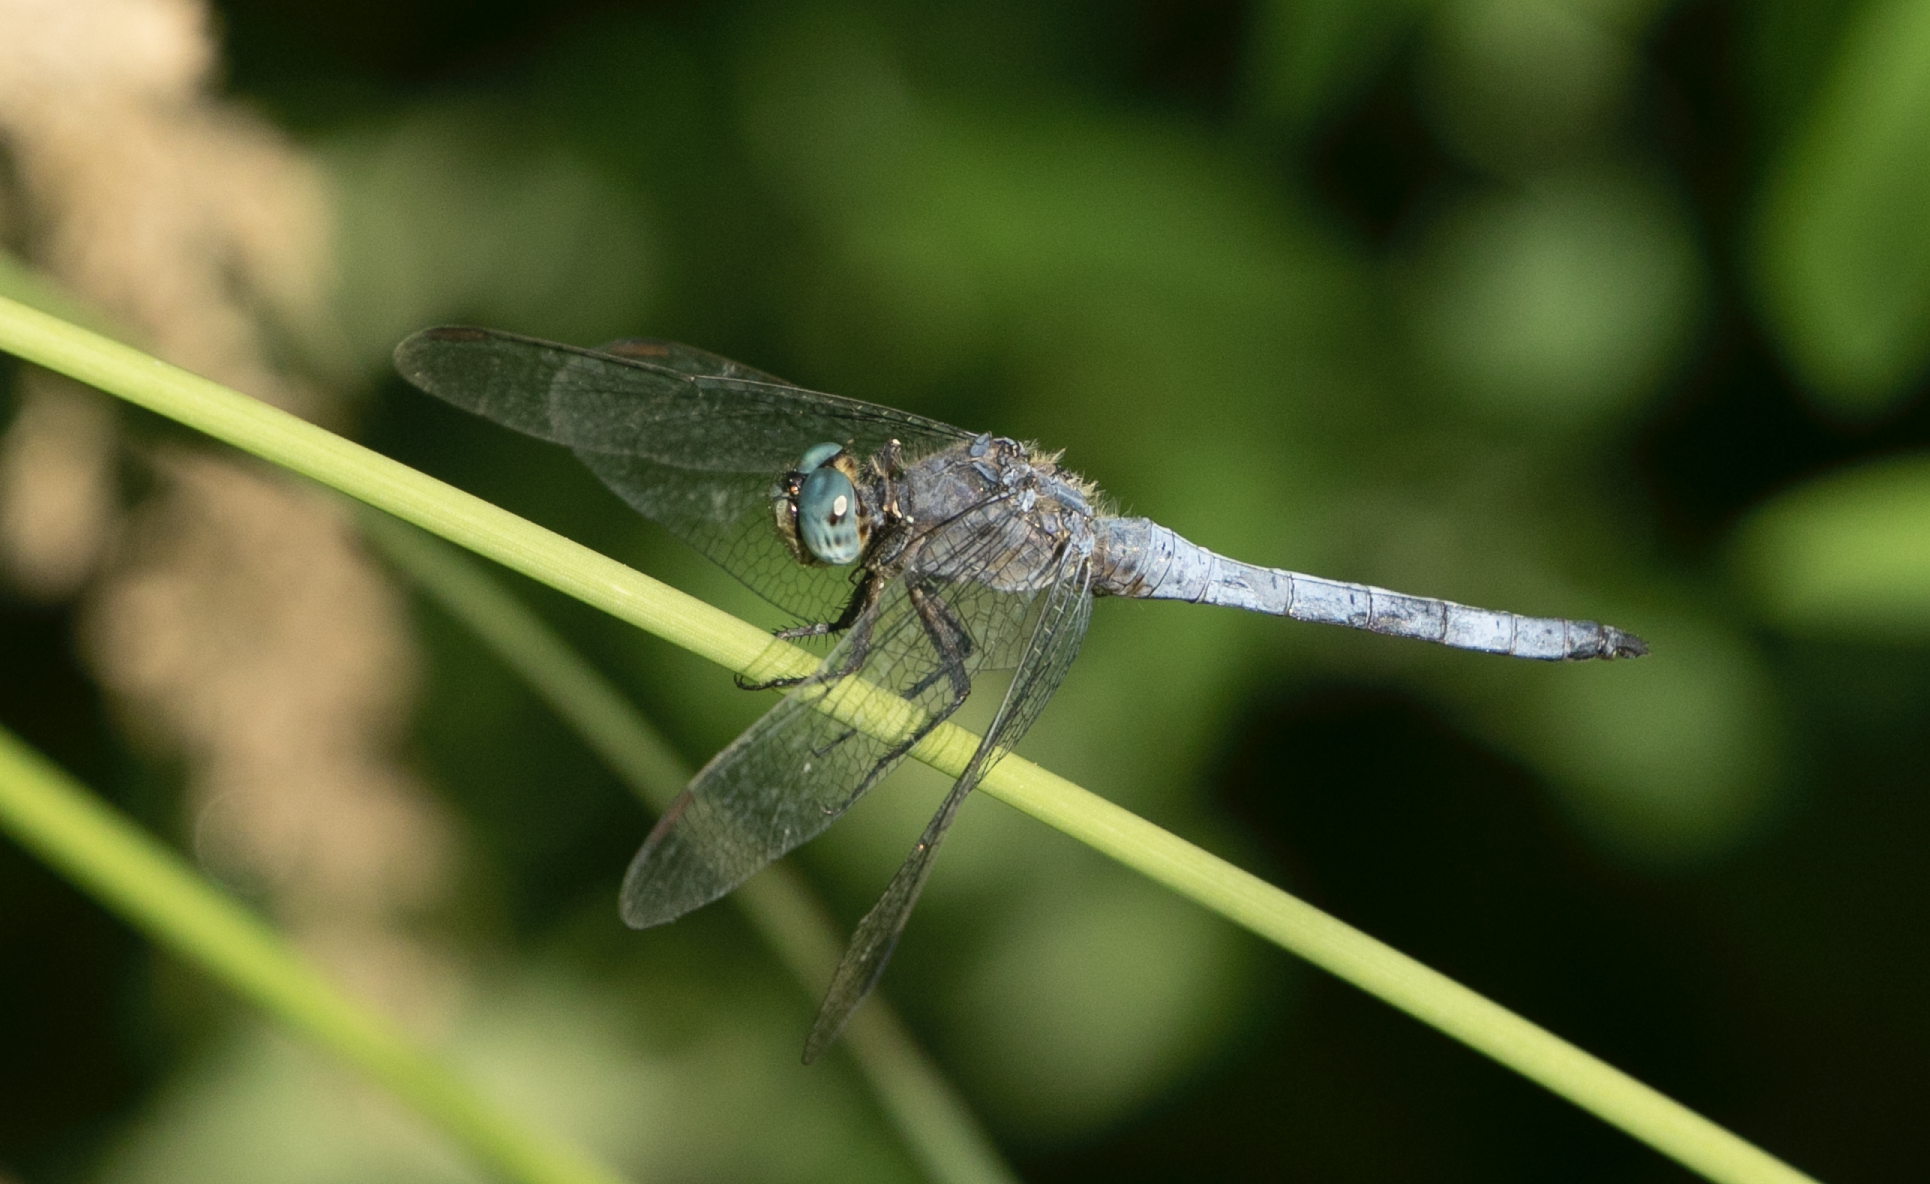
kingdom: Animalia
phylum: Arthropoda
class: Insecta
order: Odonata
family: Libellulidae
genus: Orthetrum
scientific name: Orthetrum coerulescens
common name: Keeled skimmer
